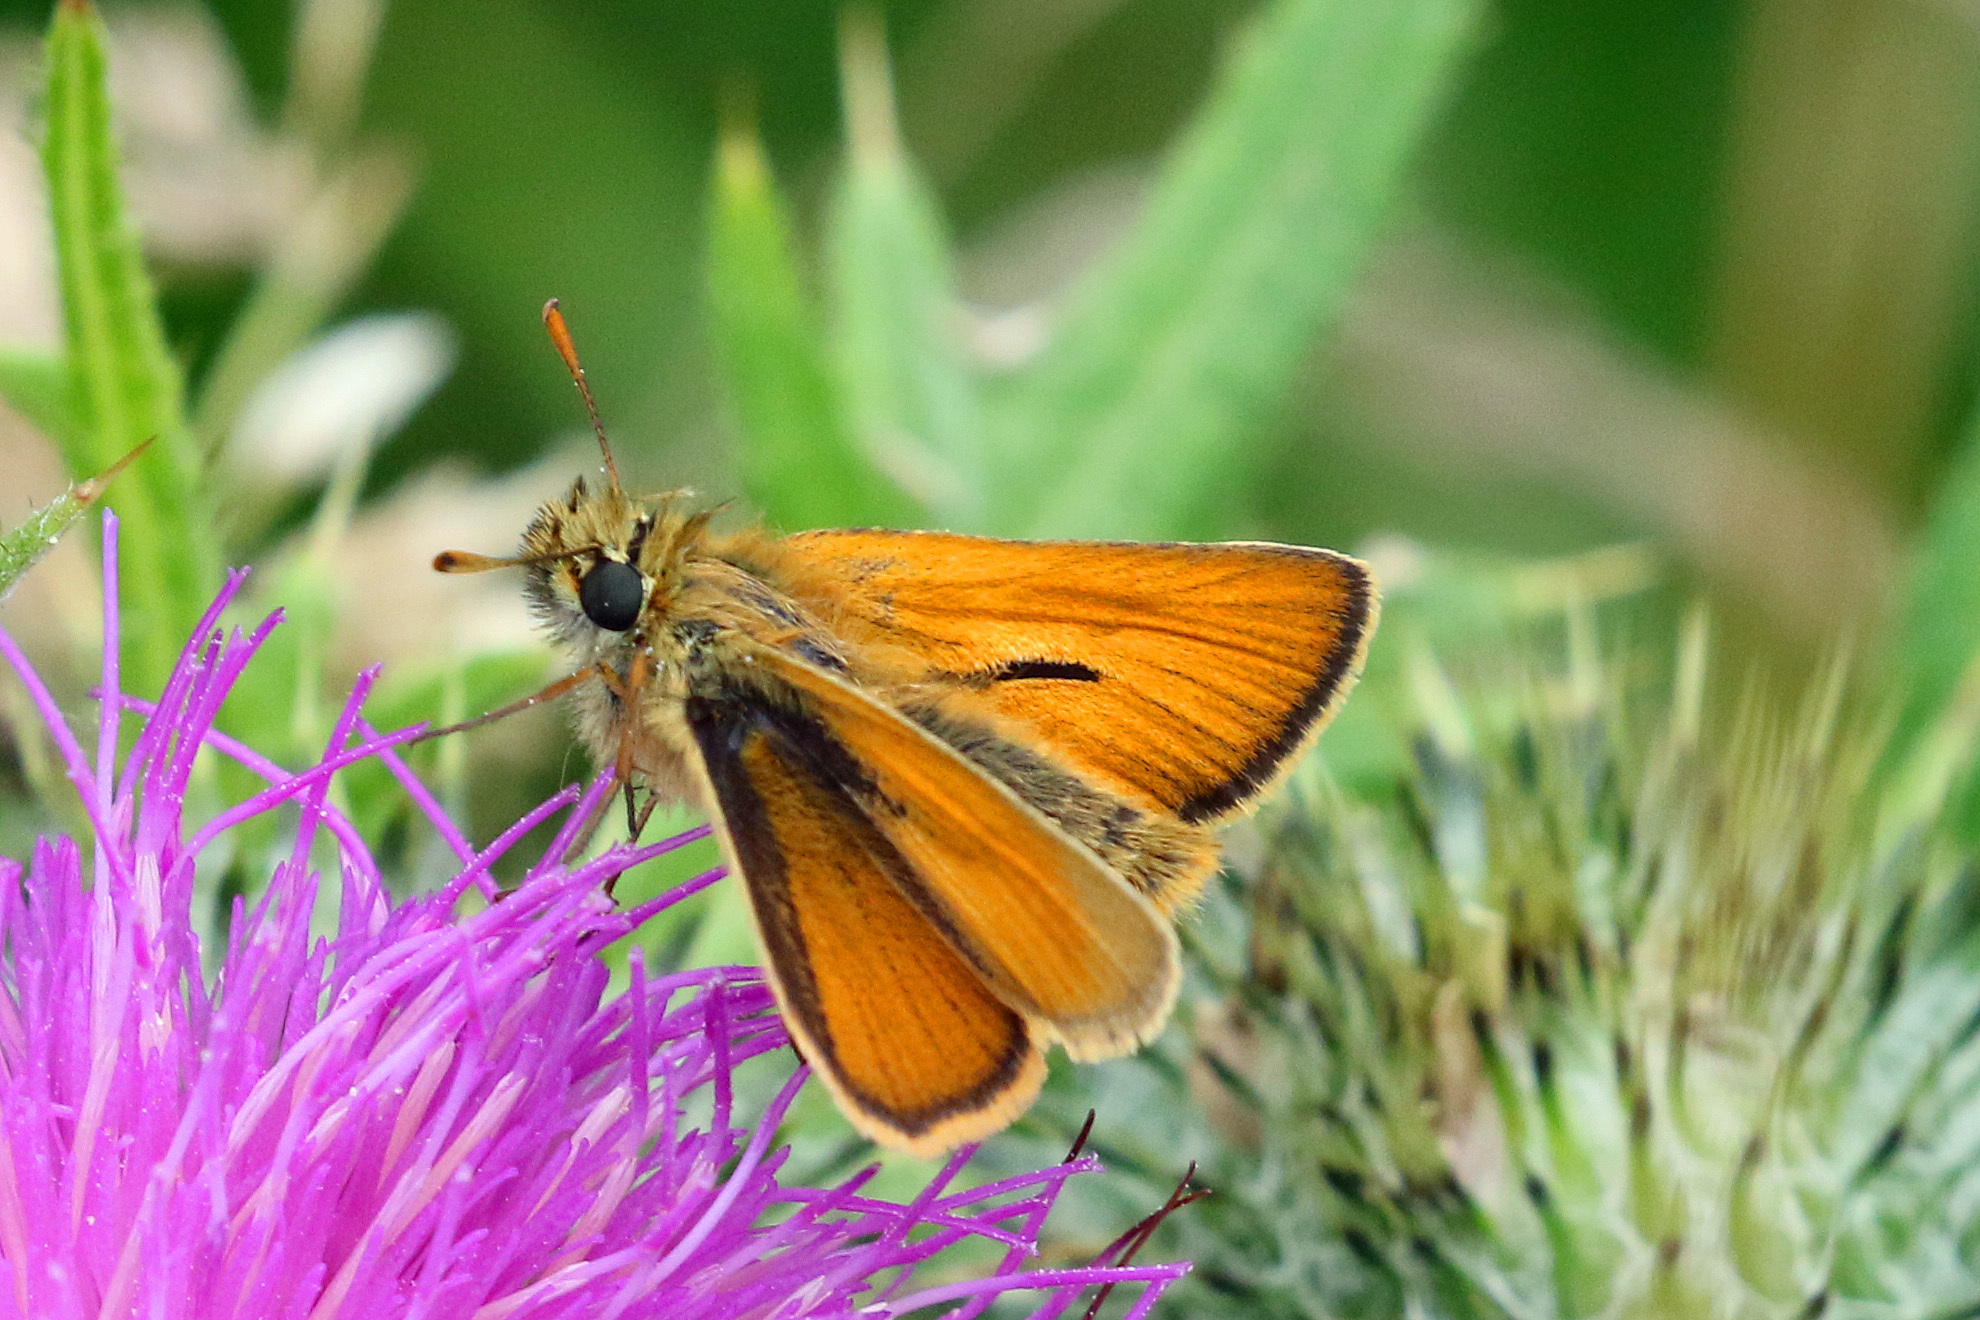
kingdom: Animalia
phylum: Arthropoda
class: Insecta
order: Lepidoptera
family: Hesperiidae
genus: Thymelicus
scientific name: Thymelicus sylvestris
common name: Small skipper
